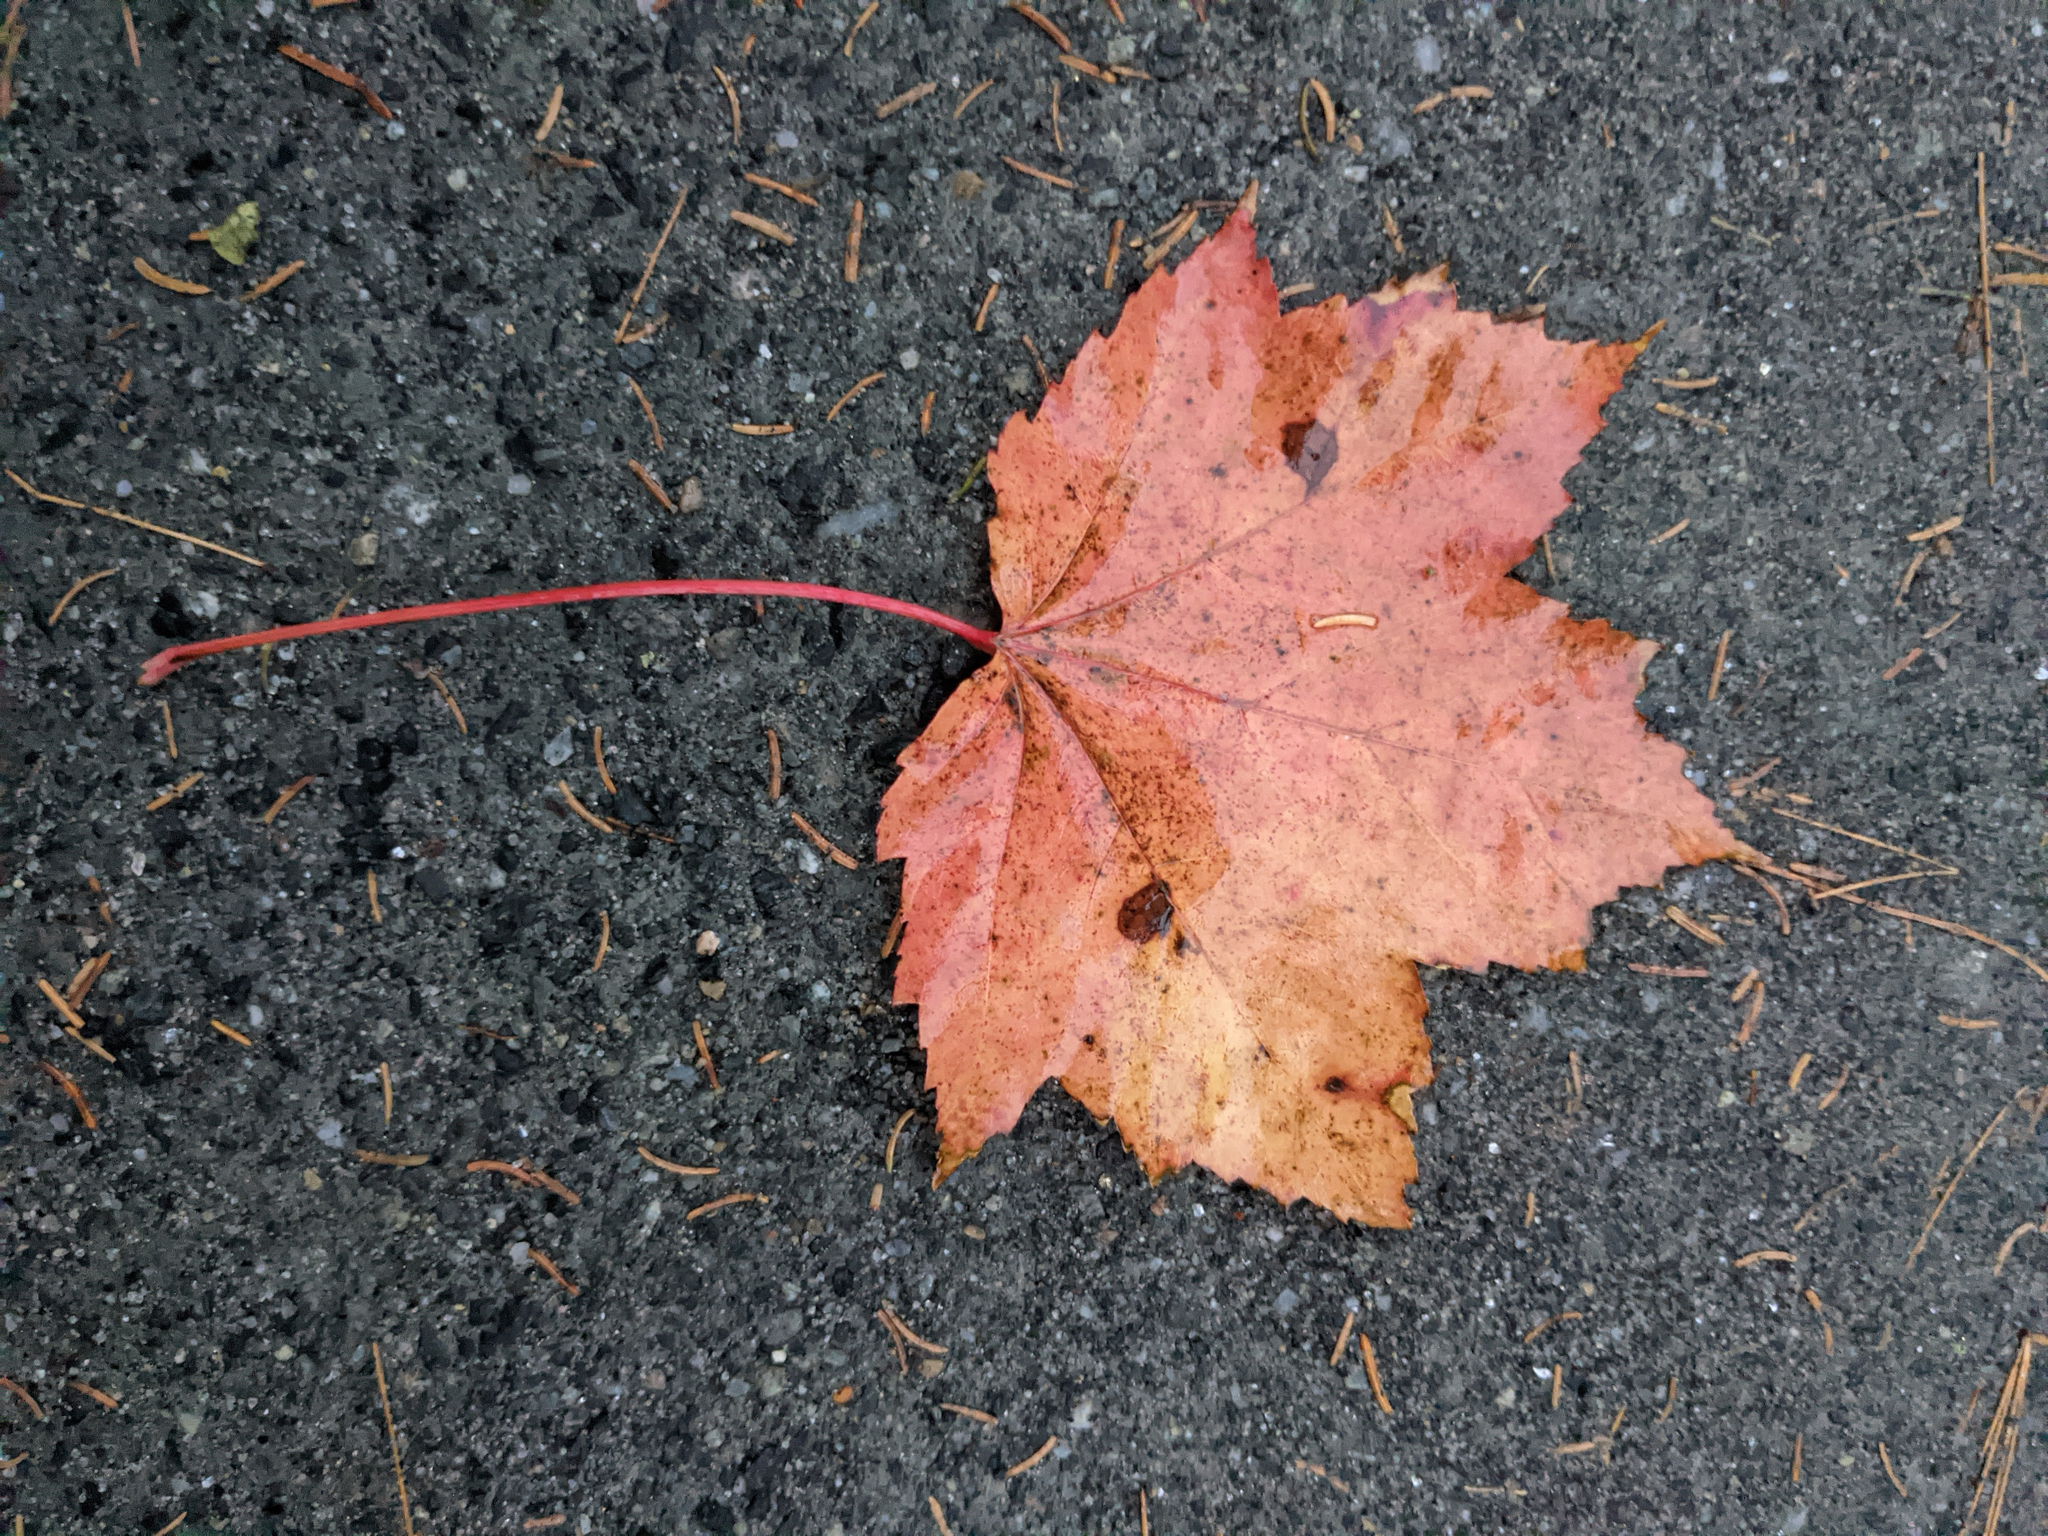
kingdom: Plantae
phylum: Tracheophyta
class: Magnoliopsida
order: Sapindales
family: Sapindaceae
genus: Acer
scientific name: Acer rubrum
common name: Red maple
